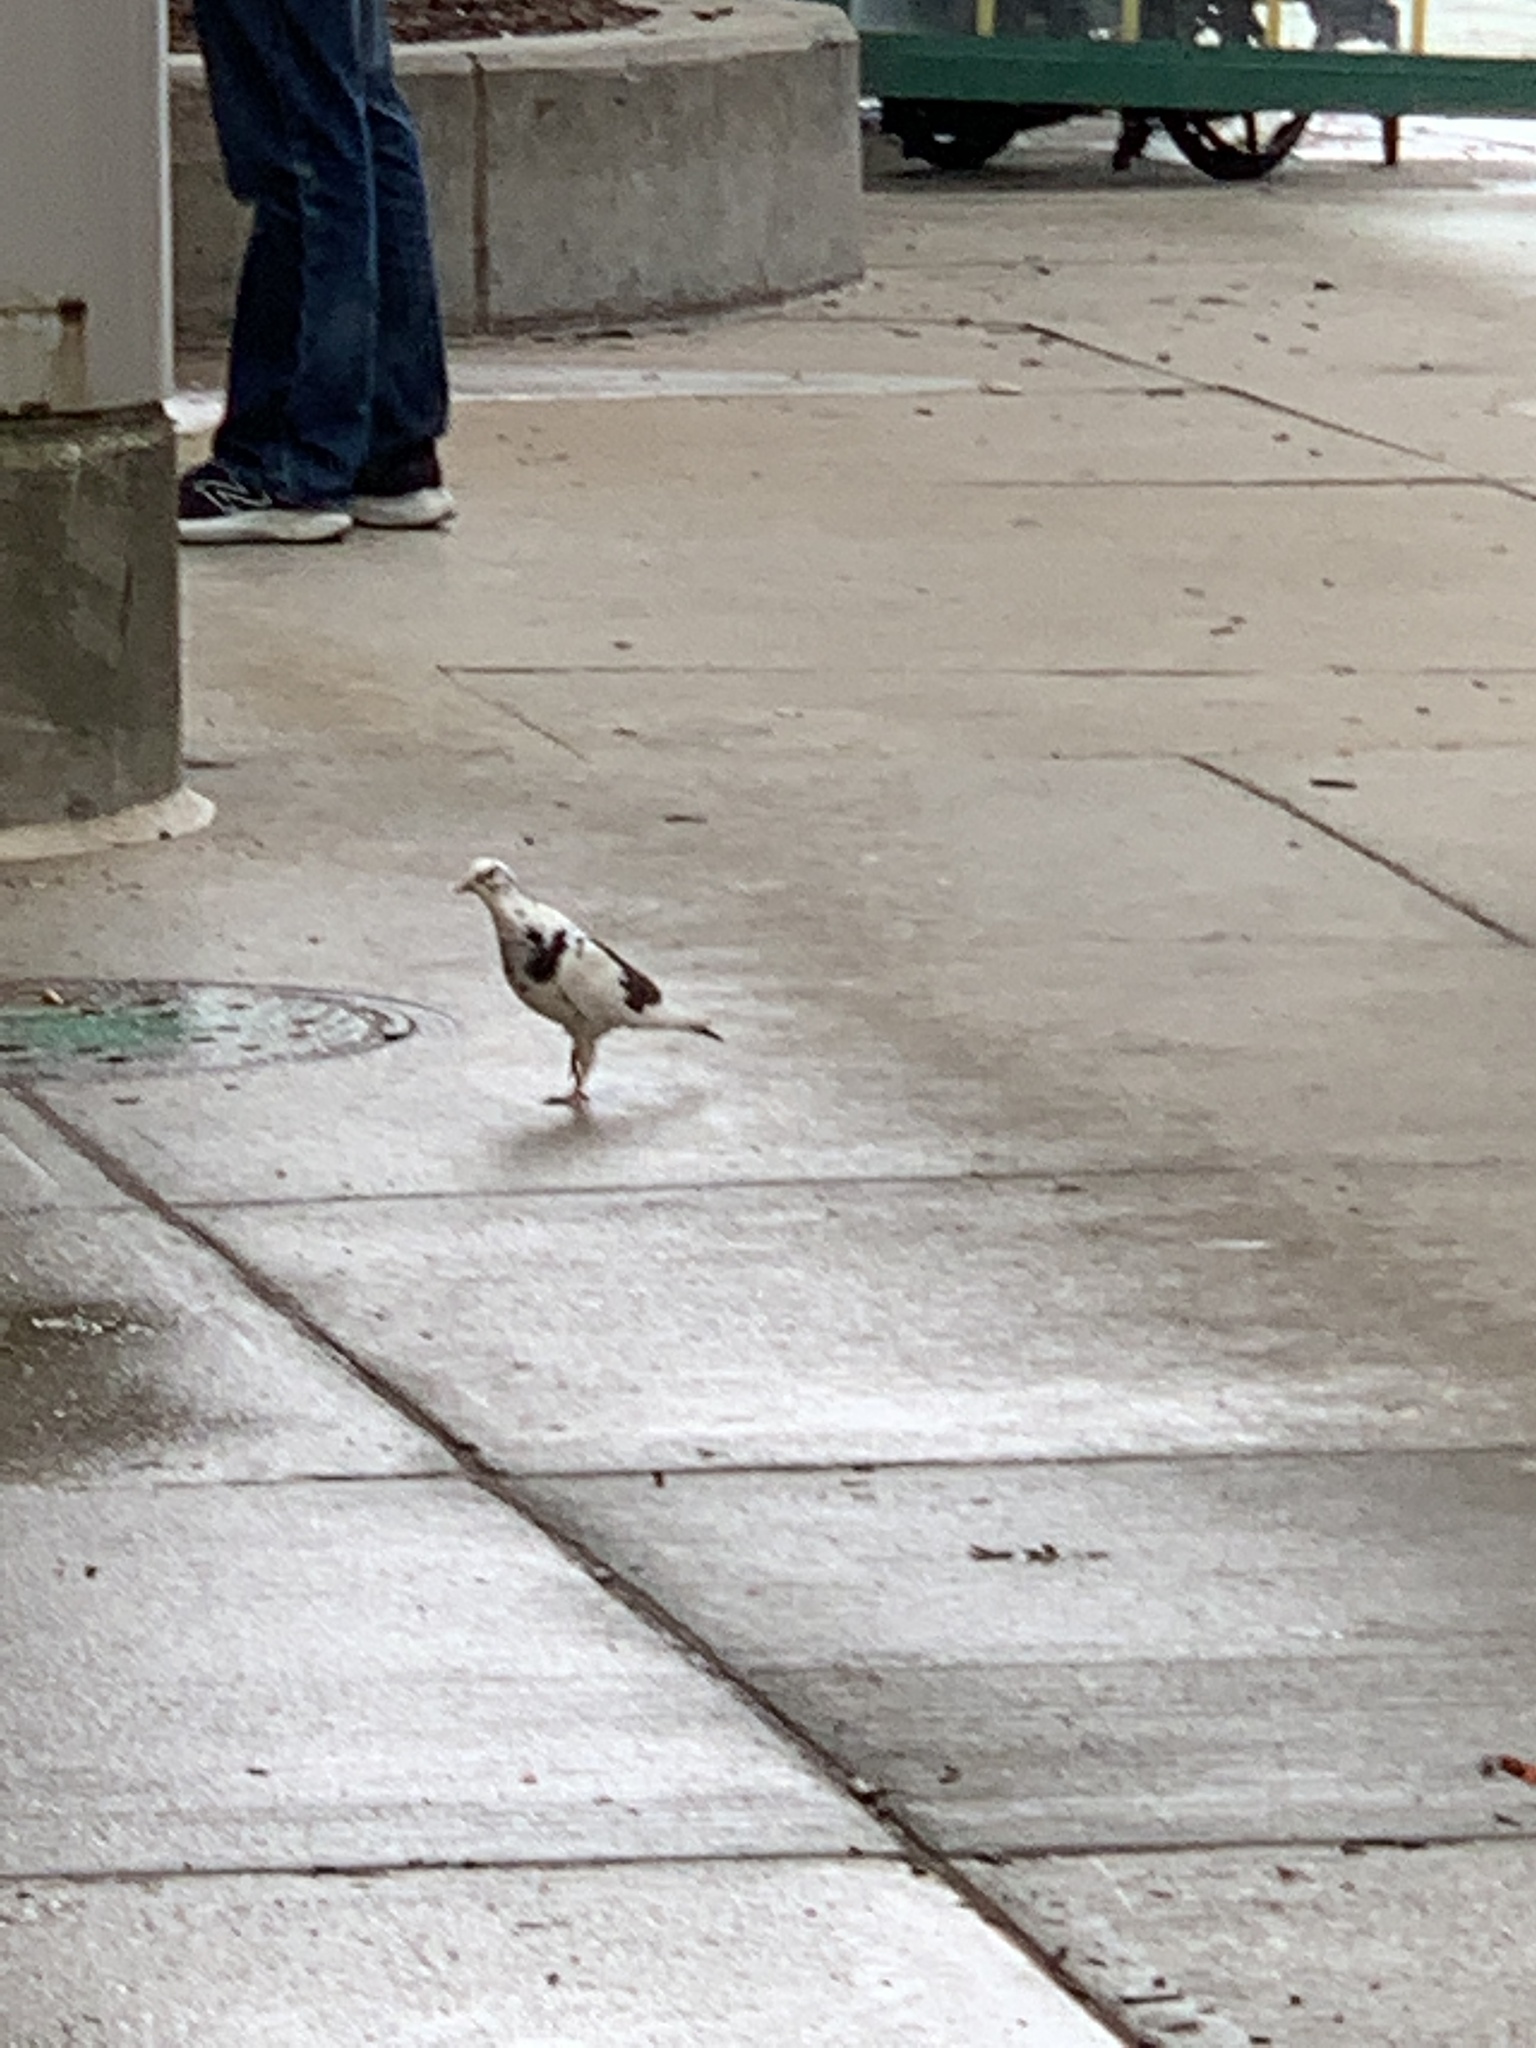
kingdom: Animalia
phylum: Chordata
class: Aves
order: Columbiformes
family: Columbidae
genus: Columba
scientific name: Columba livia
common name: Rock pigeon
